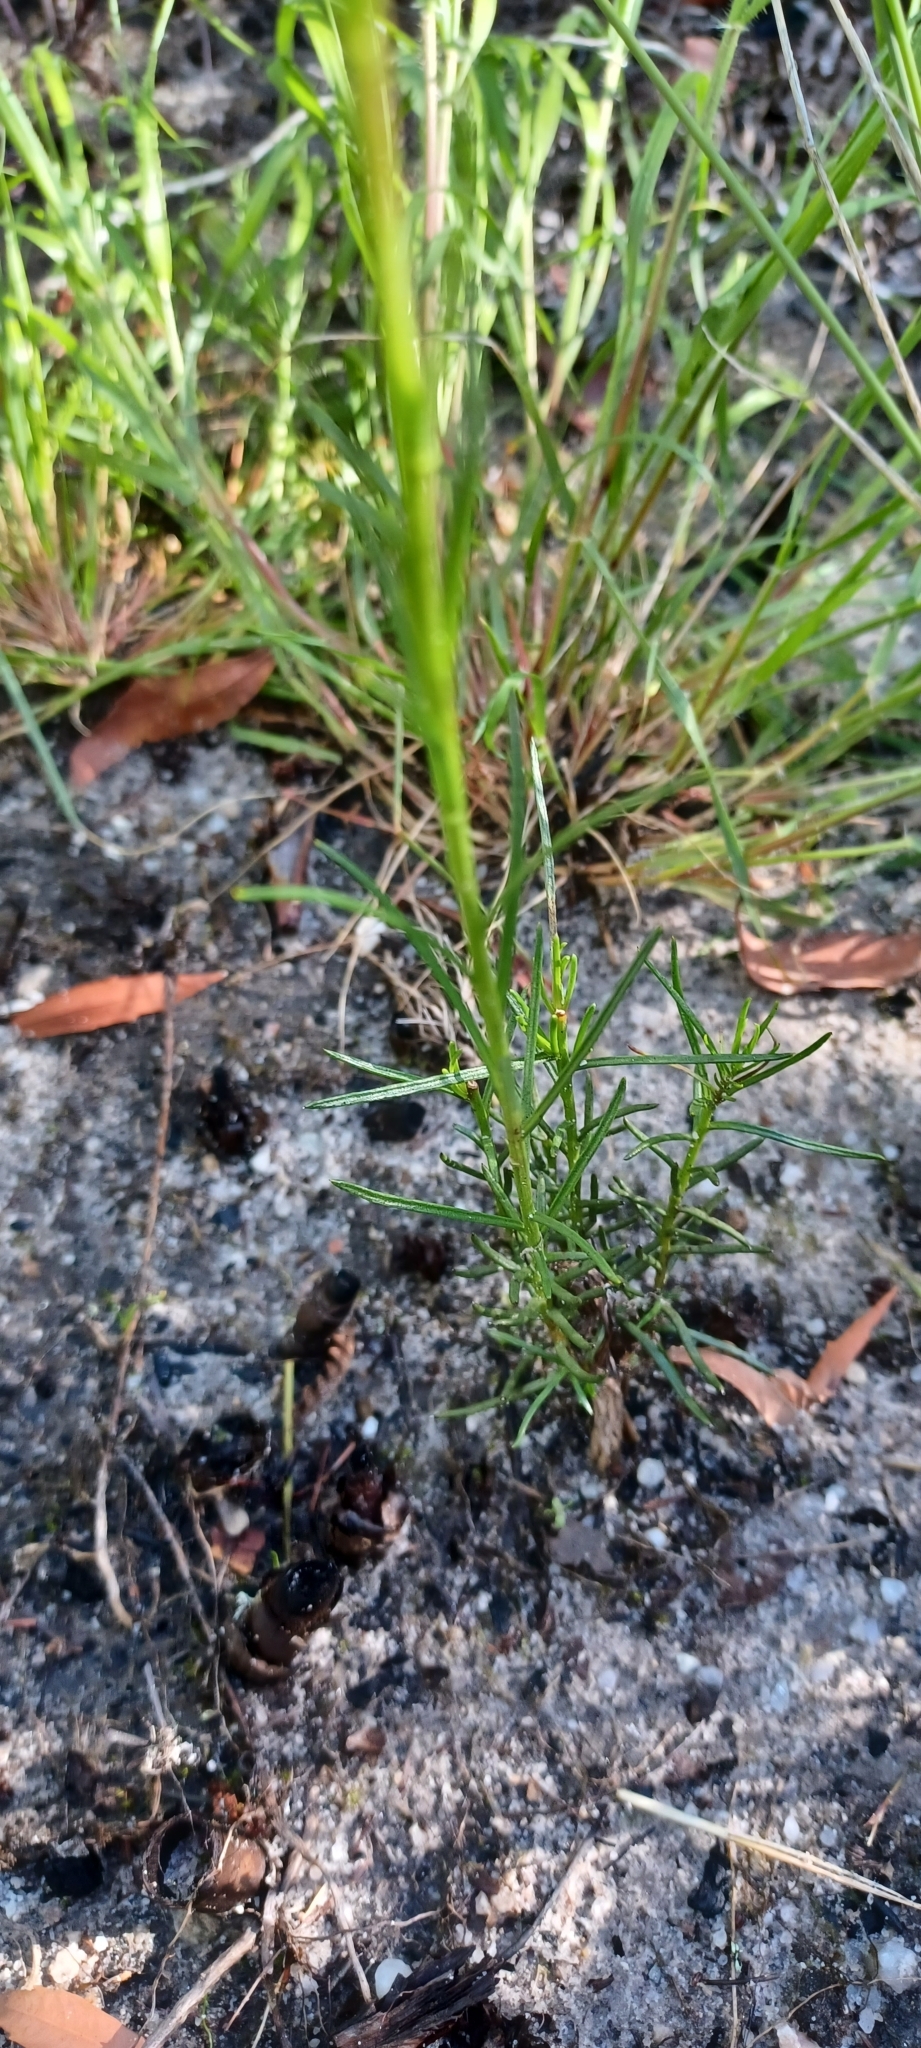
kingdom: Plantae
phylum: Tracheophyta
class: Magnoliopsida
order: Brassicales
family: Brassicaceae
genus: Heliophila
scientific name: Heliophila scoparia
